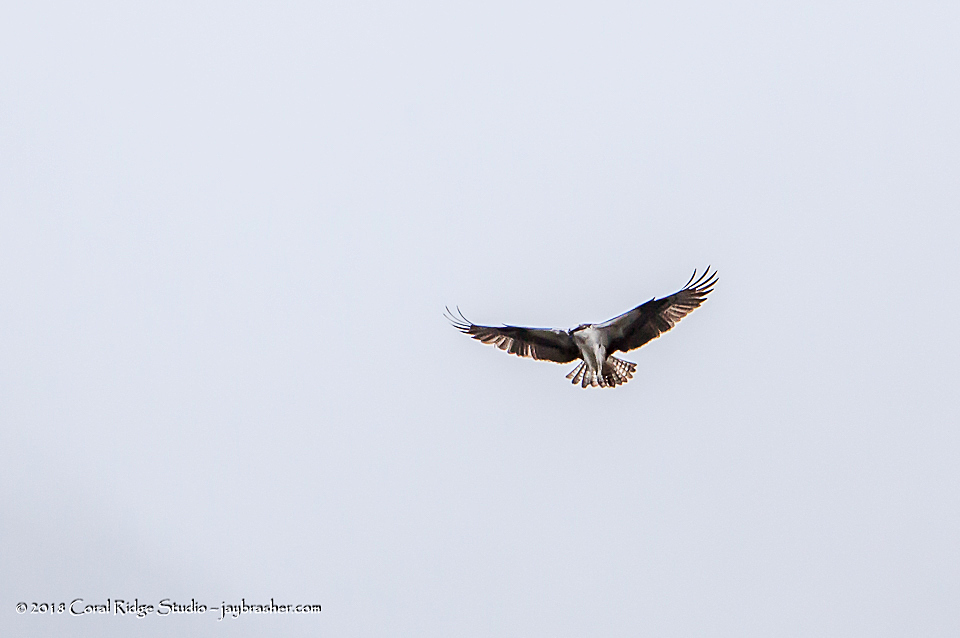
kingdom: Animalia
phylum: Chordata
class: Aves
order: Accipitriformes
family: Pandionidae
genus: Pandion
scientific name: Pandion haliaetus
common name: Osprey
